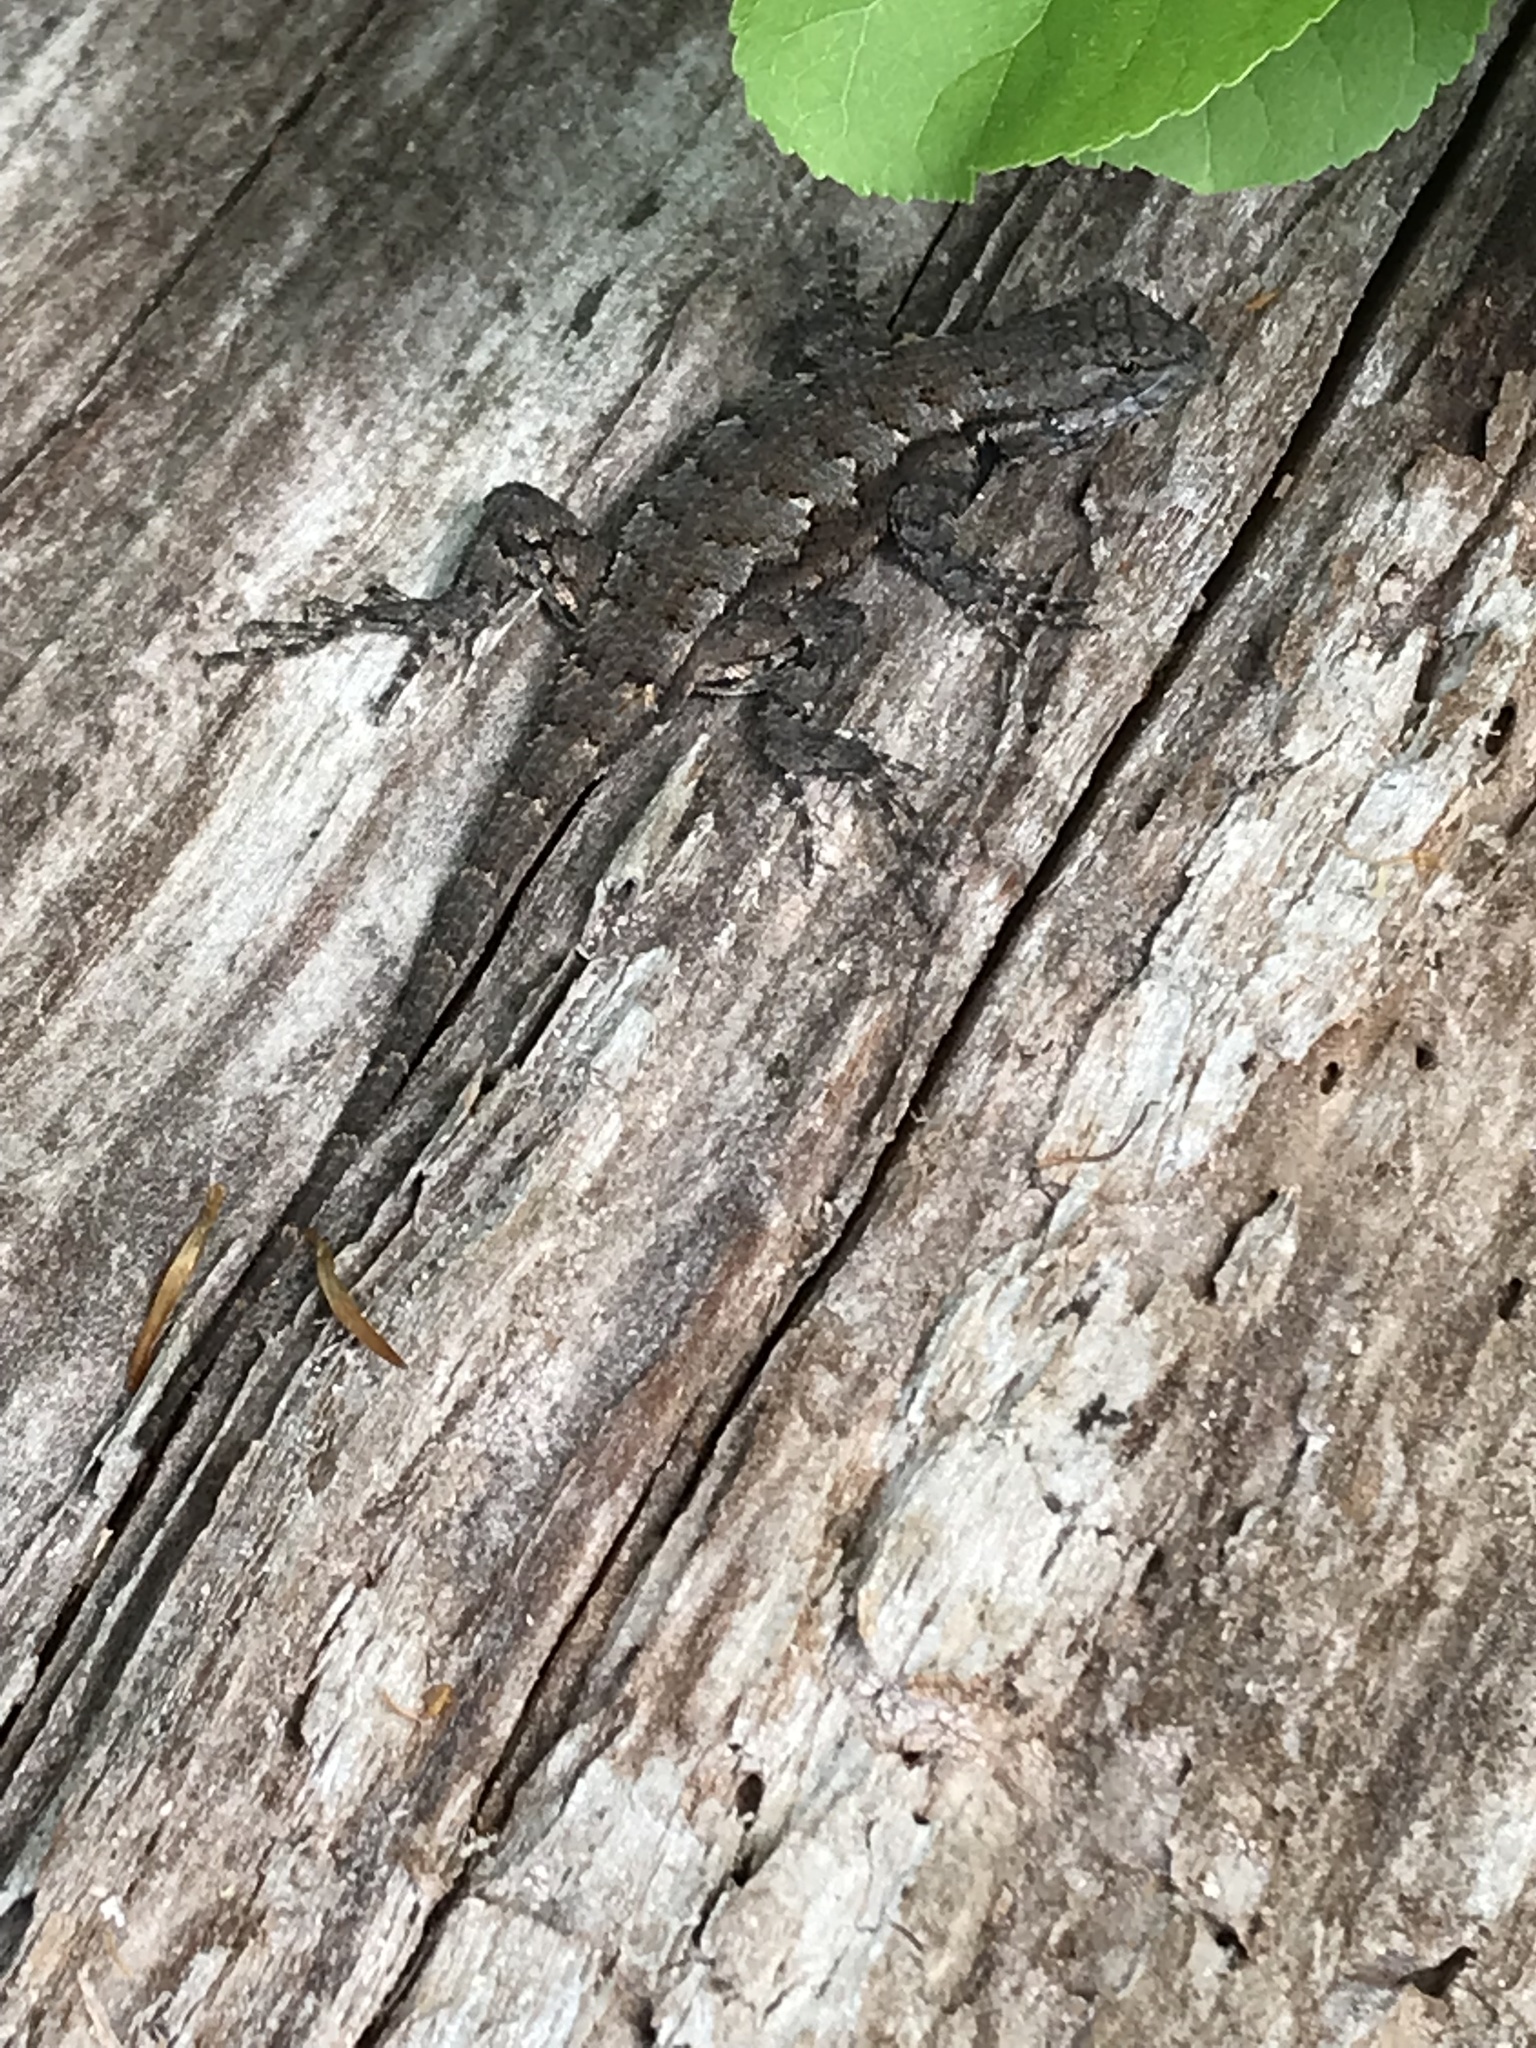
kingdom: Animalia
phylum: Chordata
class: Squamata
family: Phrynosomatidae
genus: Sceloporus
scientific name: Sceloporus undulatus
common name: Eastern fence lizard
